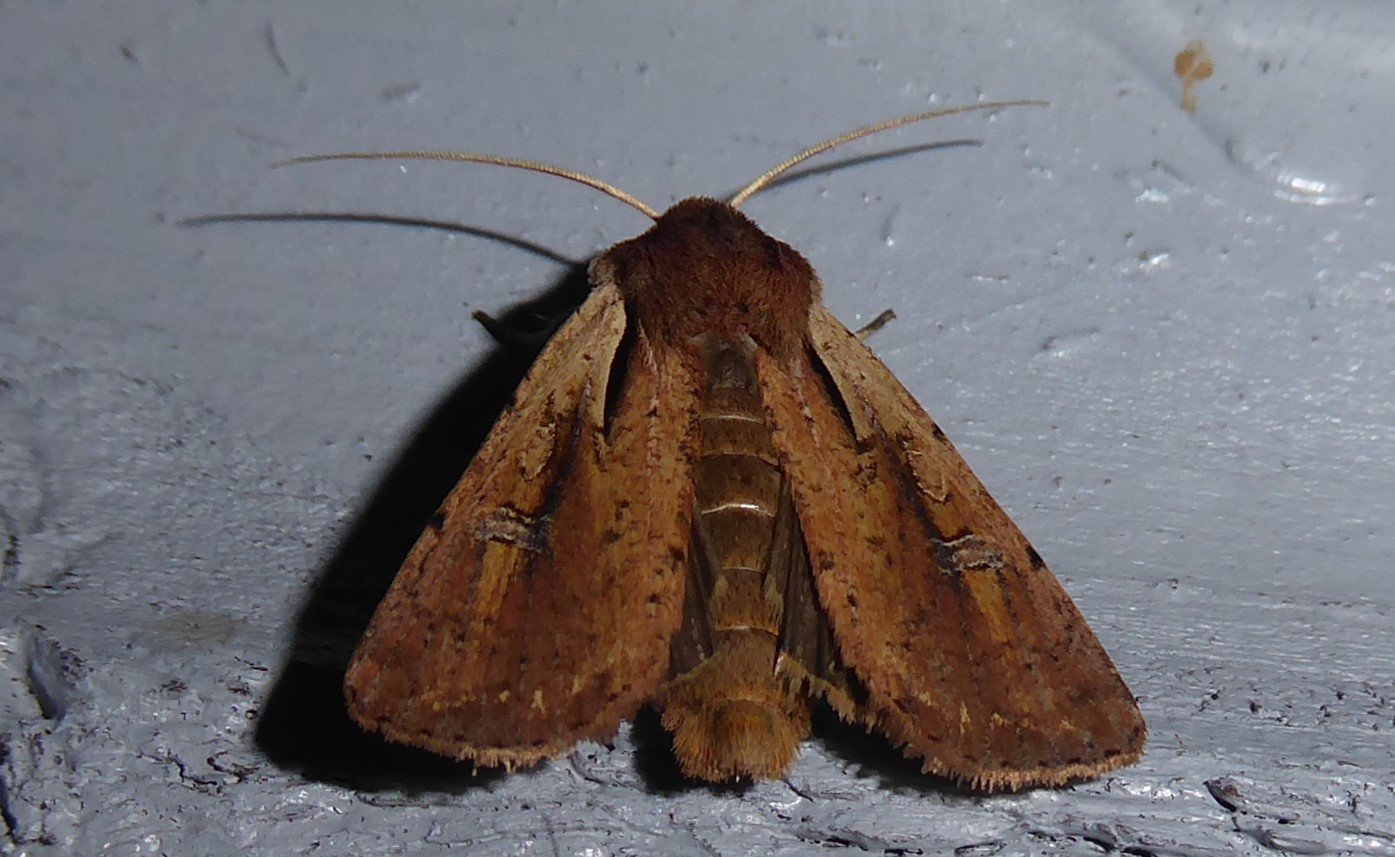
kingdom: Animalia
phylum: Arthropoda
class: Insecta
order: Lepidoptera
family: Noctuidae
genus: Ichneutica
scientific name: Ichneutica atristriga
